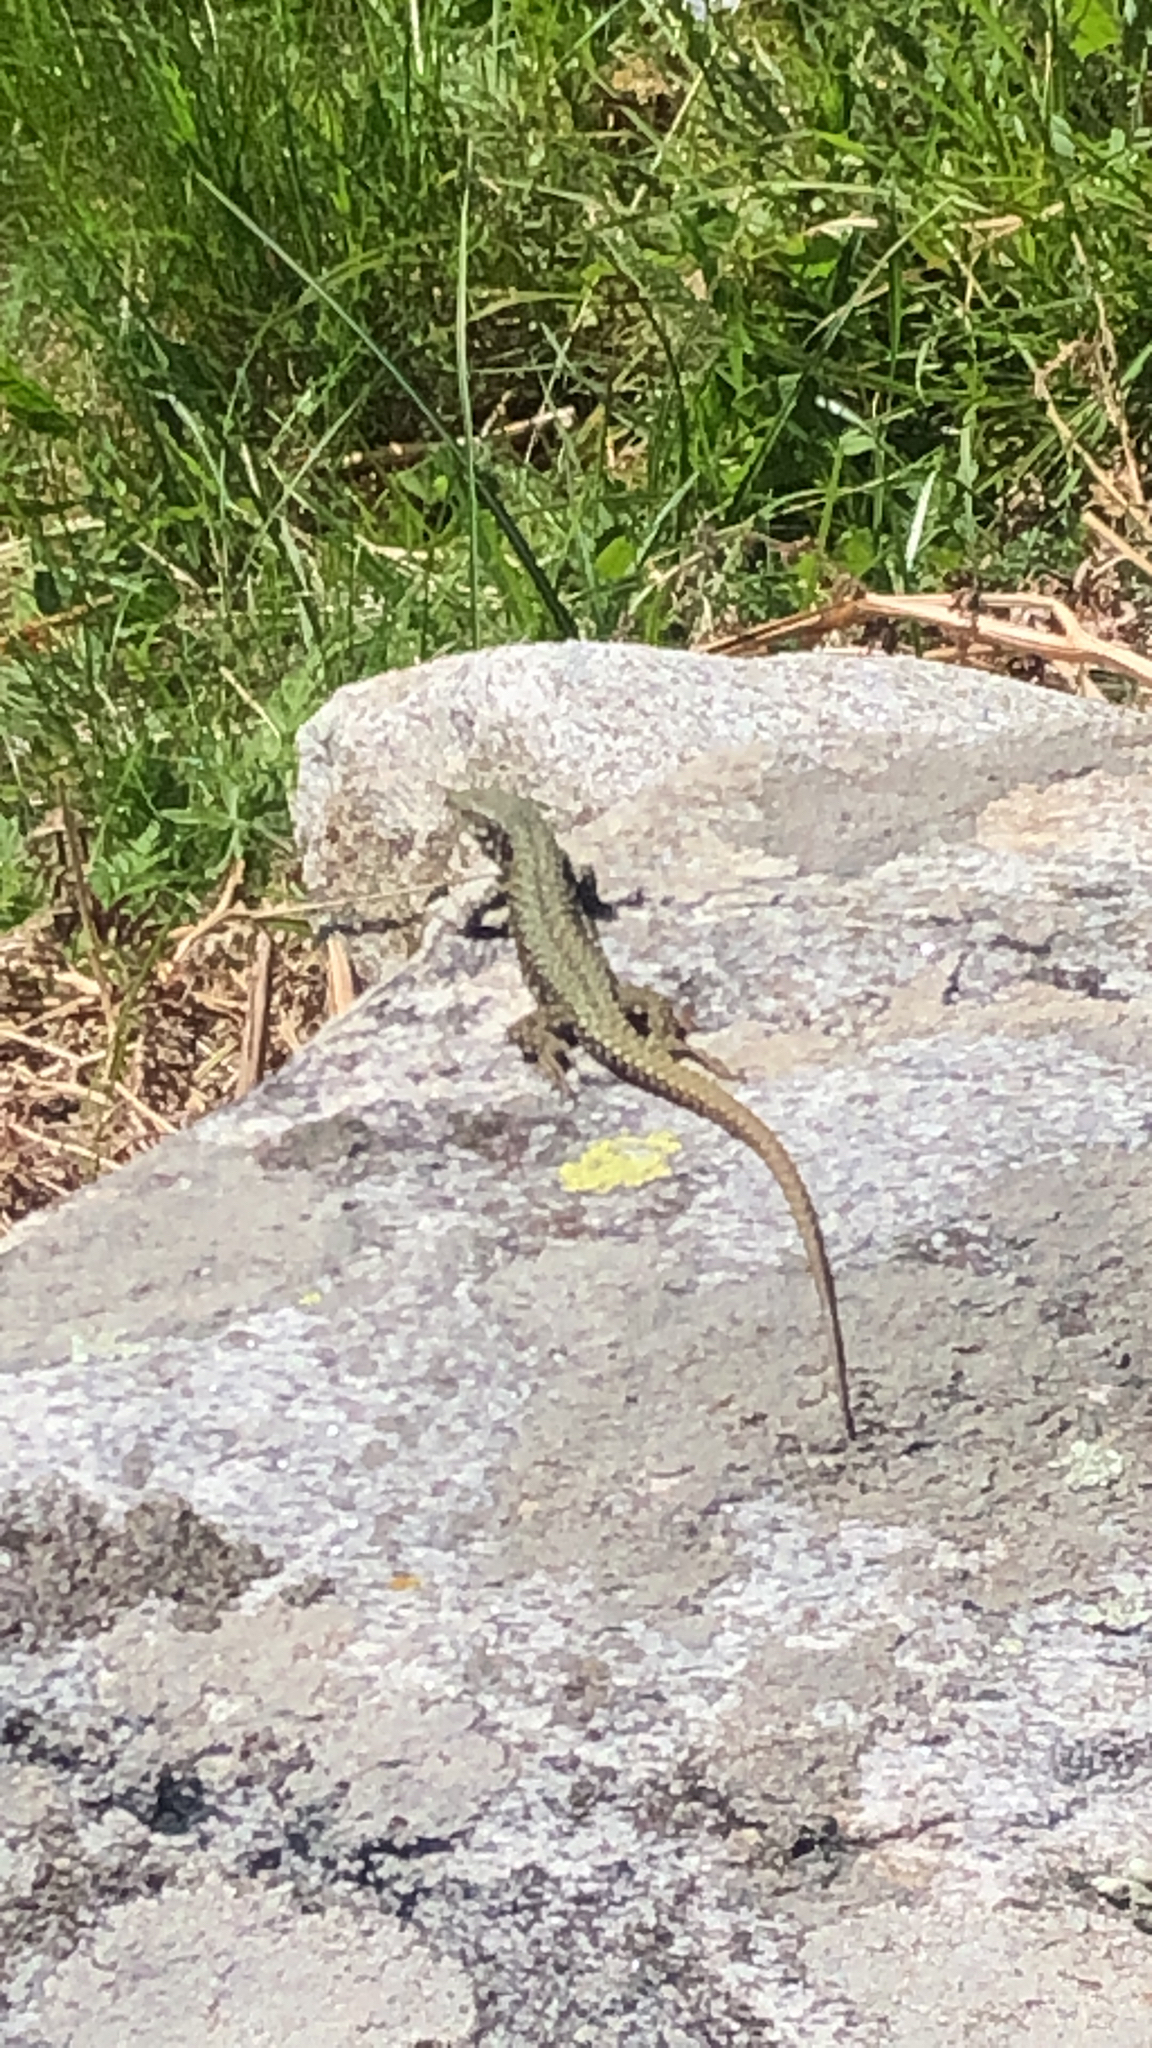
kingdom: Animalia
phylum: Chordata
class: Squamata
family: Lacertidae
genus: Podarcis
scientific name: Podarcis muralis
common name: Common wall lizard
